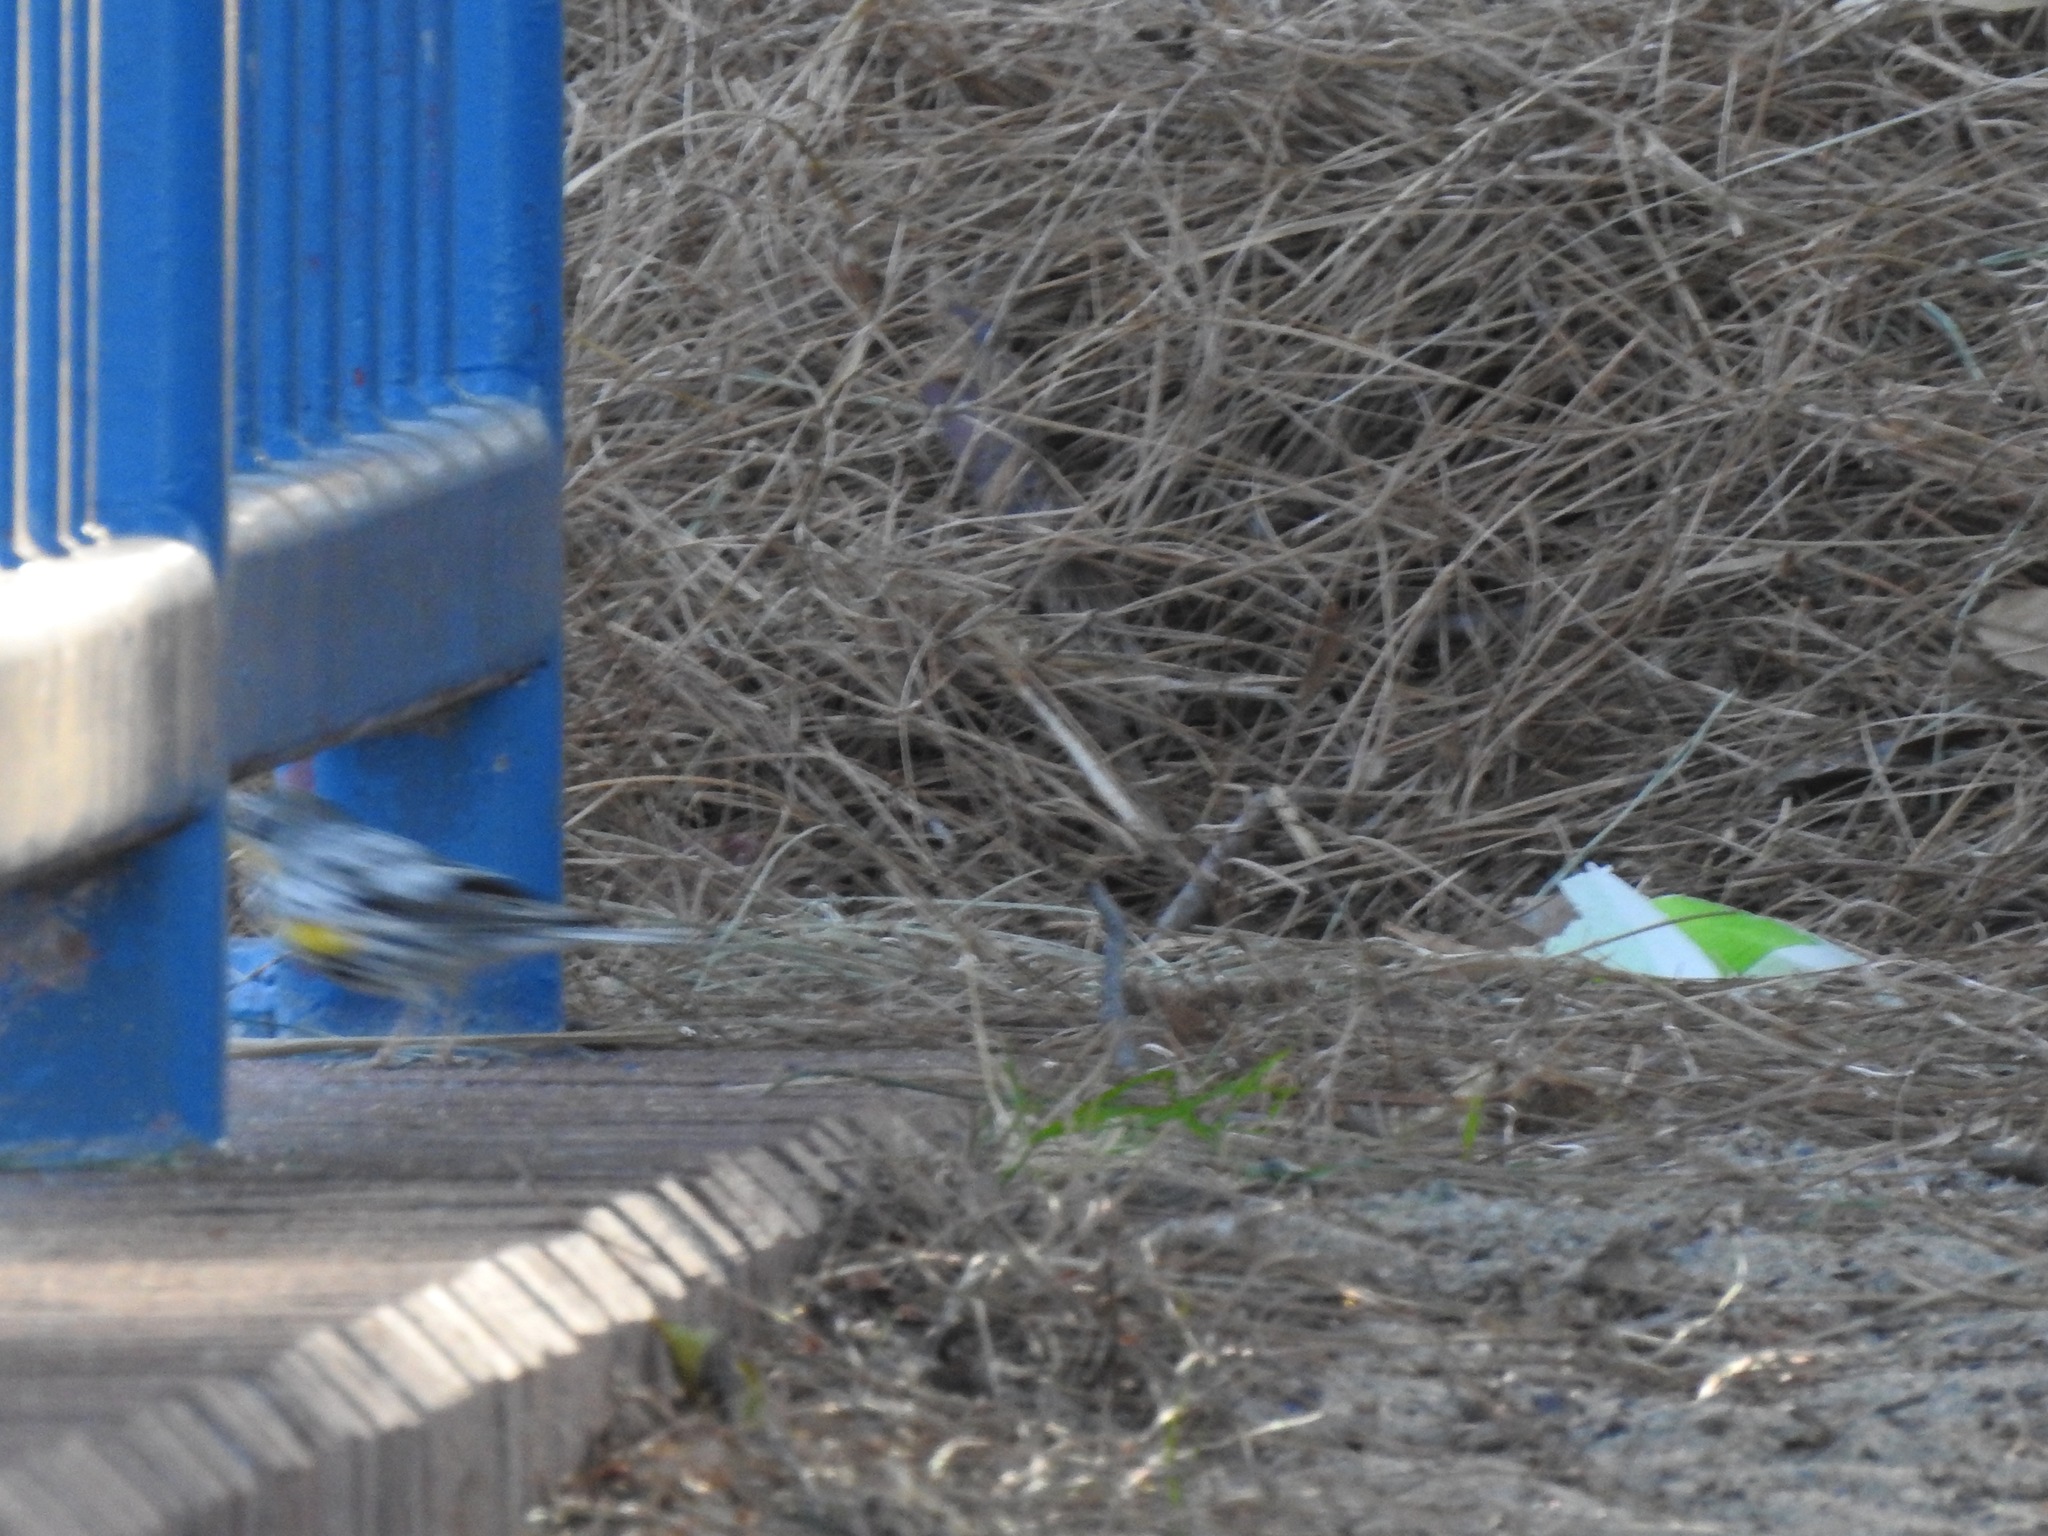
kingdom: Animalia
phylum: Chordata
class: Aves
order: Passeriformes
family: Parulidae
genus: Setophaga
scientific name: Setophaga coronata
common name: Myrtle warbler
